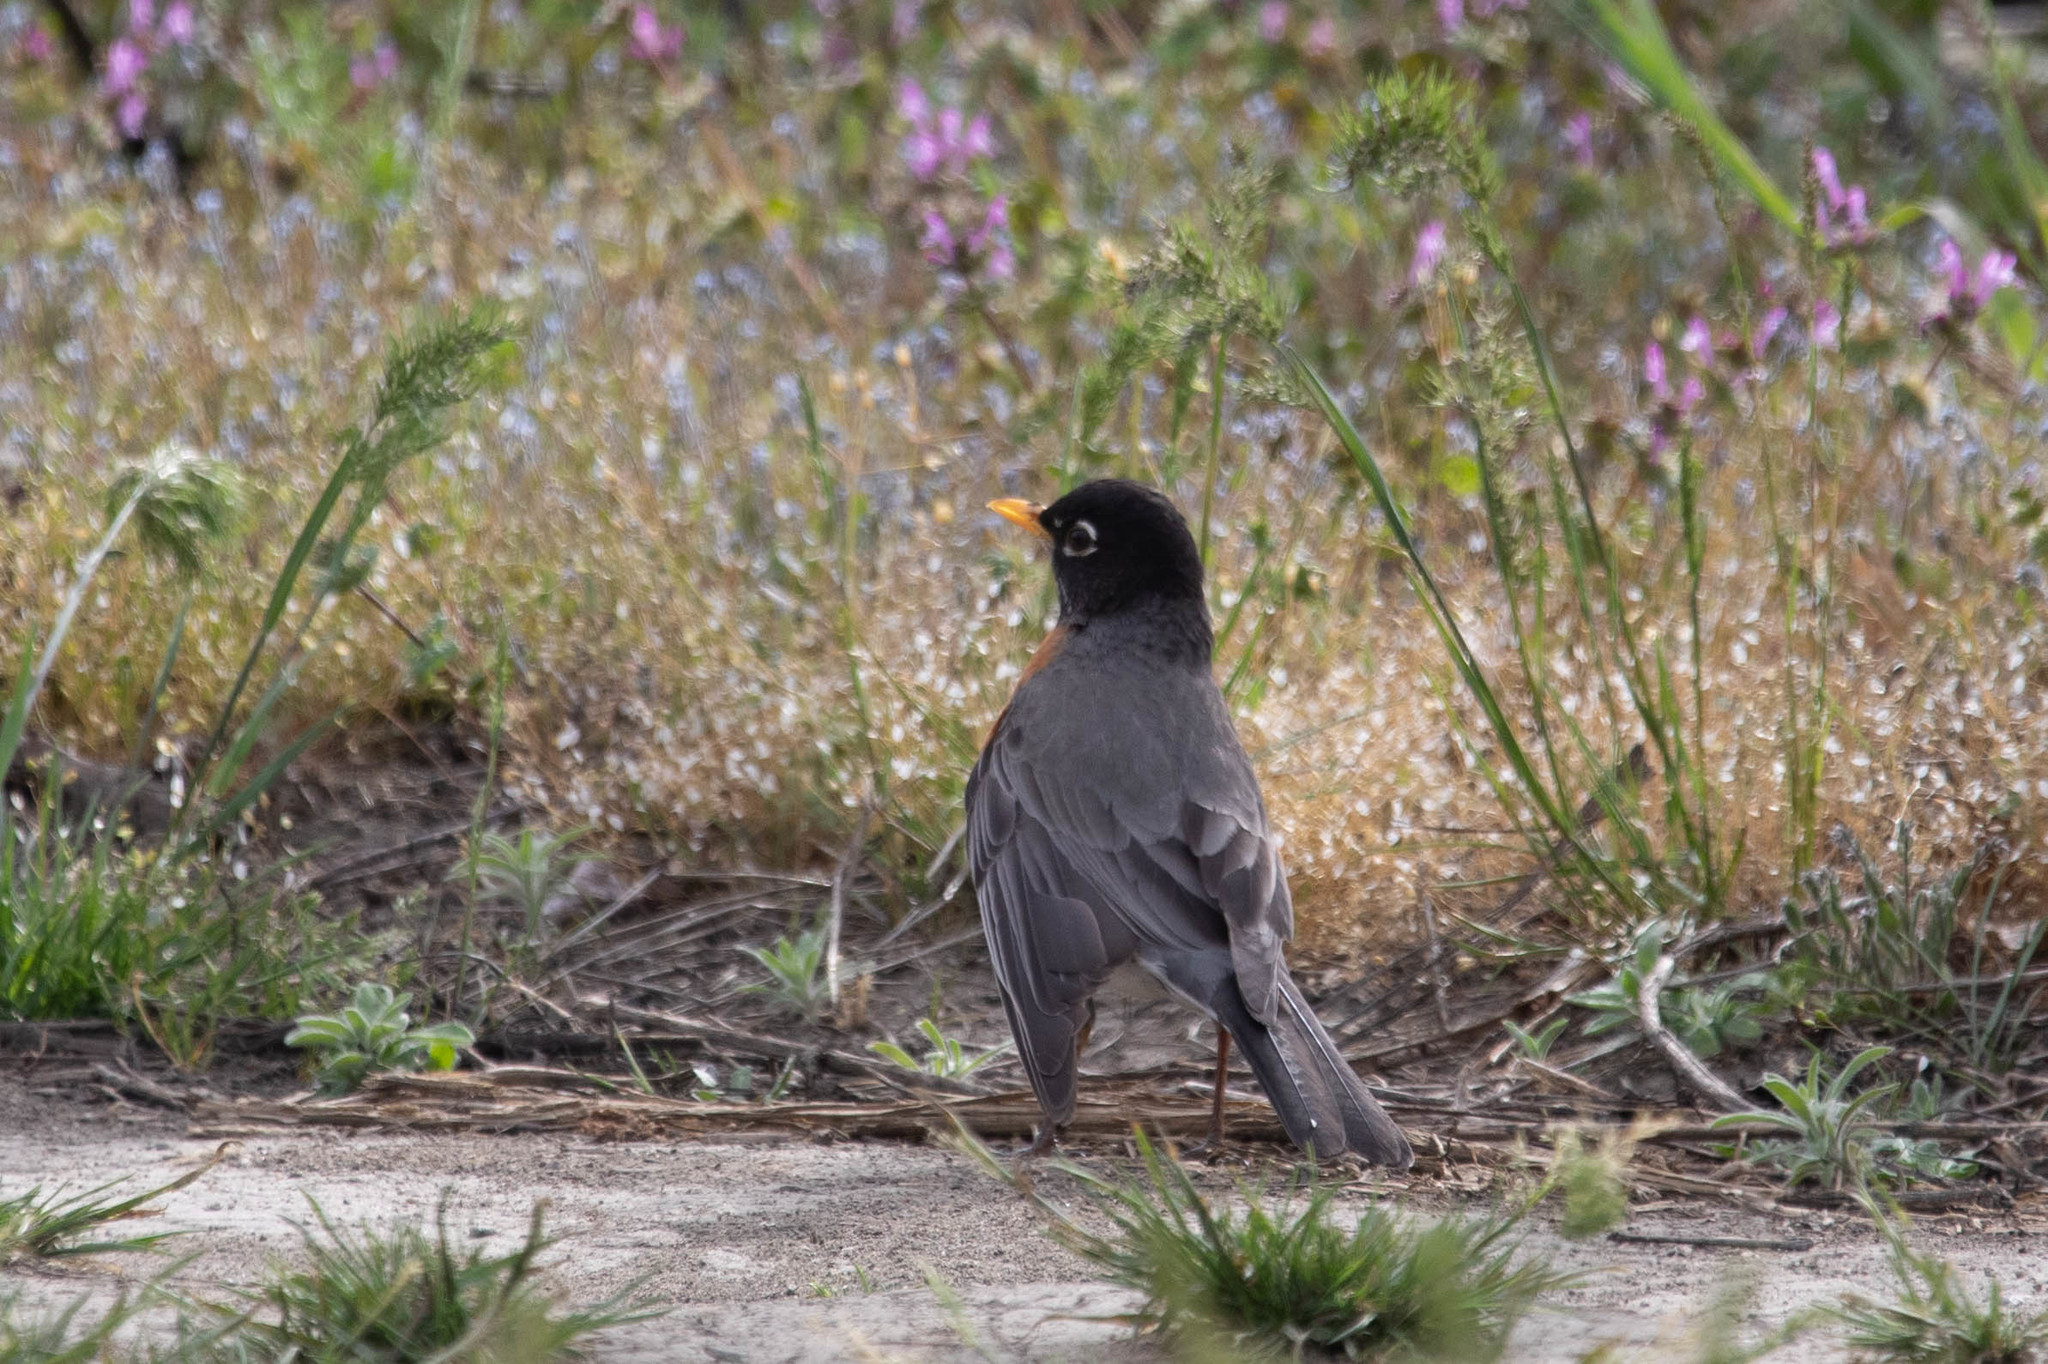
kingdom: Animalia
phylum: Chordata
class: Aves
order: Passeriformes
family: Turdidae
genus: Turdus
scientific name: Turdus migratorius
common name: American robin
